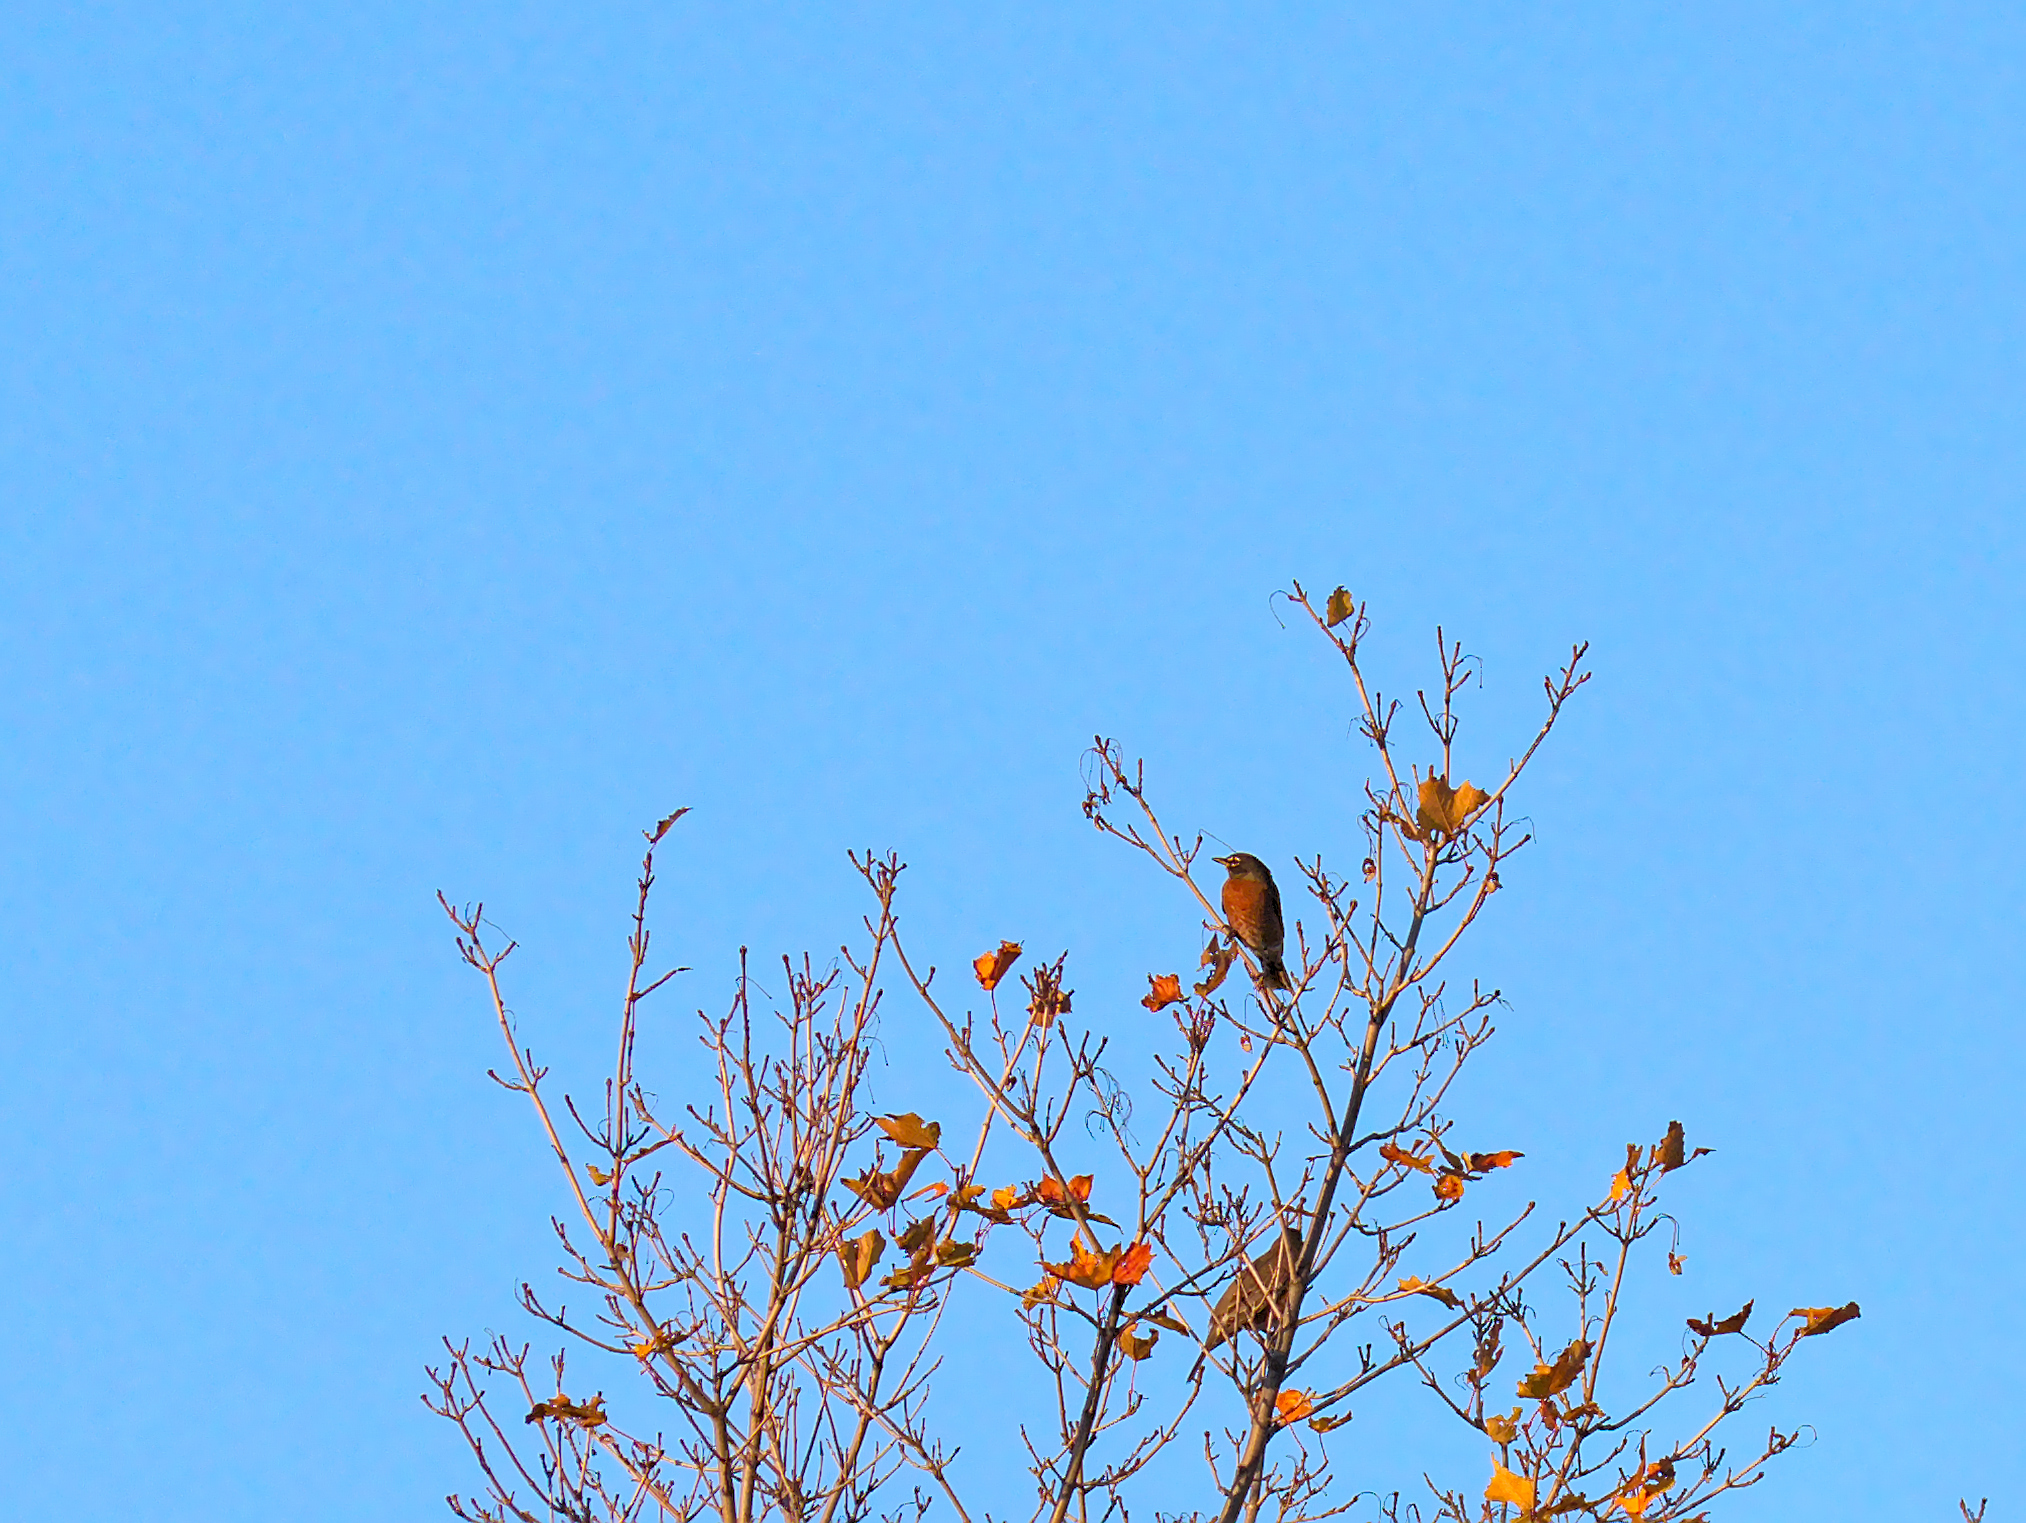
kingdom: Animalia
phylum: Chordata
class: Aves
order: Passeriformes
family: Turdidae
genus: Turdus
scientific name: Turdus migratorius
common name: American robin
